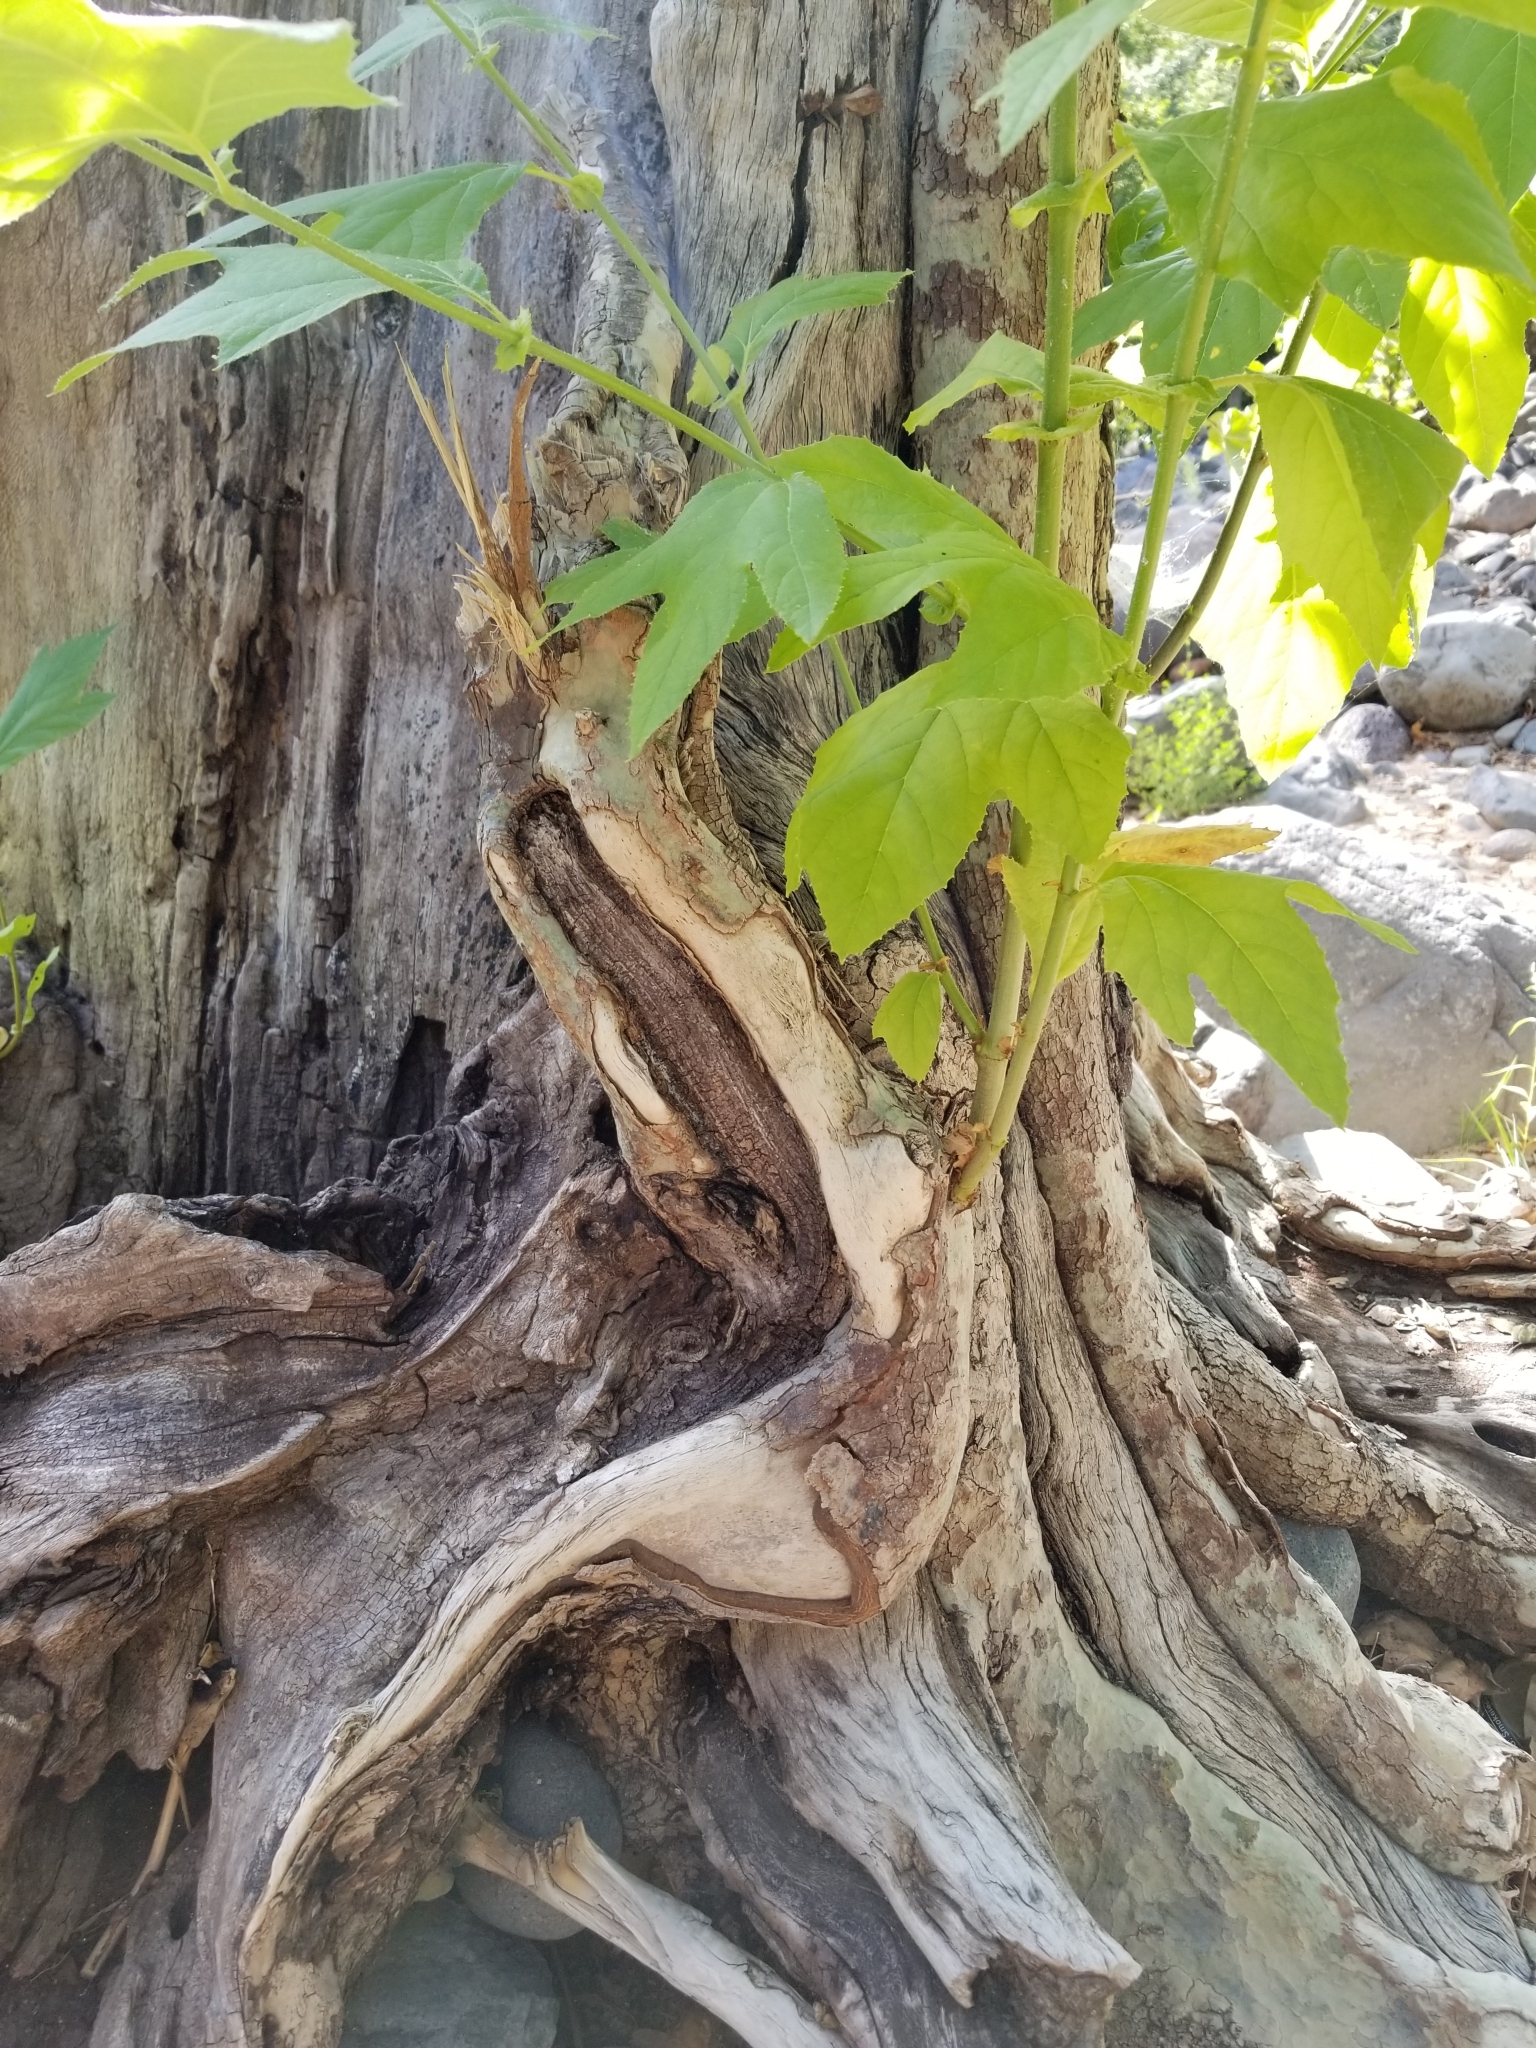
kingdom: Plantae
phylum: Tracheophyta
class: Magnoliopsida
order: Proteales
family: Platanaceae
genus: Platanus
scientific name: Platanus wrightii
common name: Arizona sycamore
